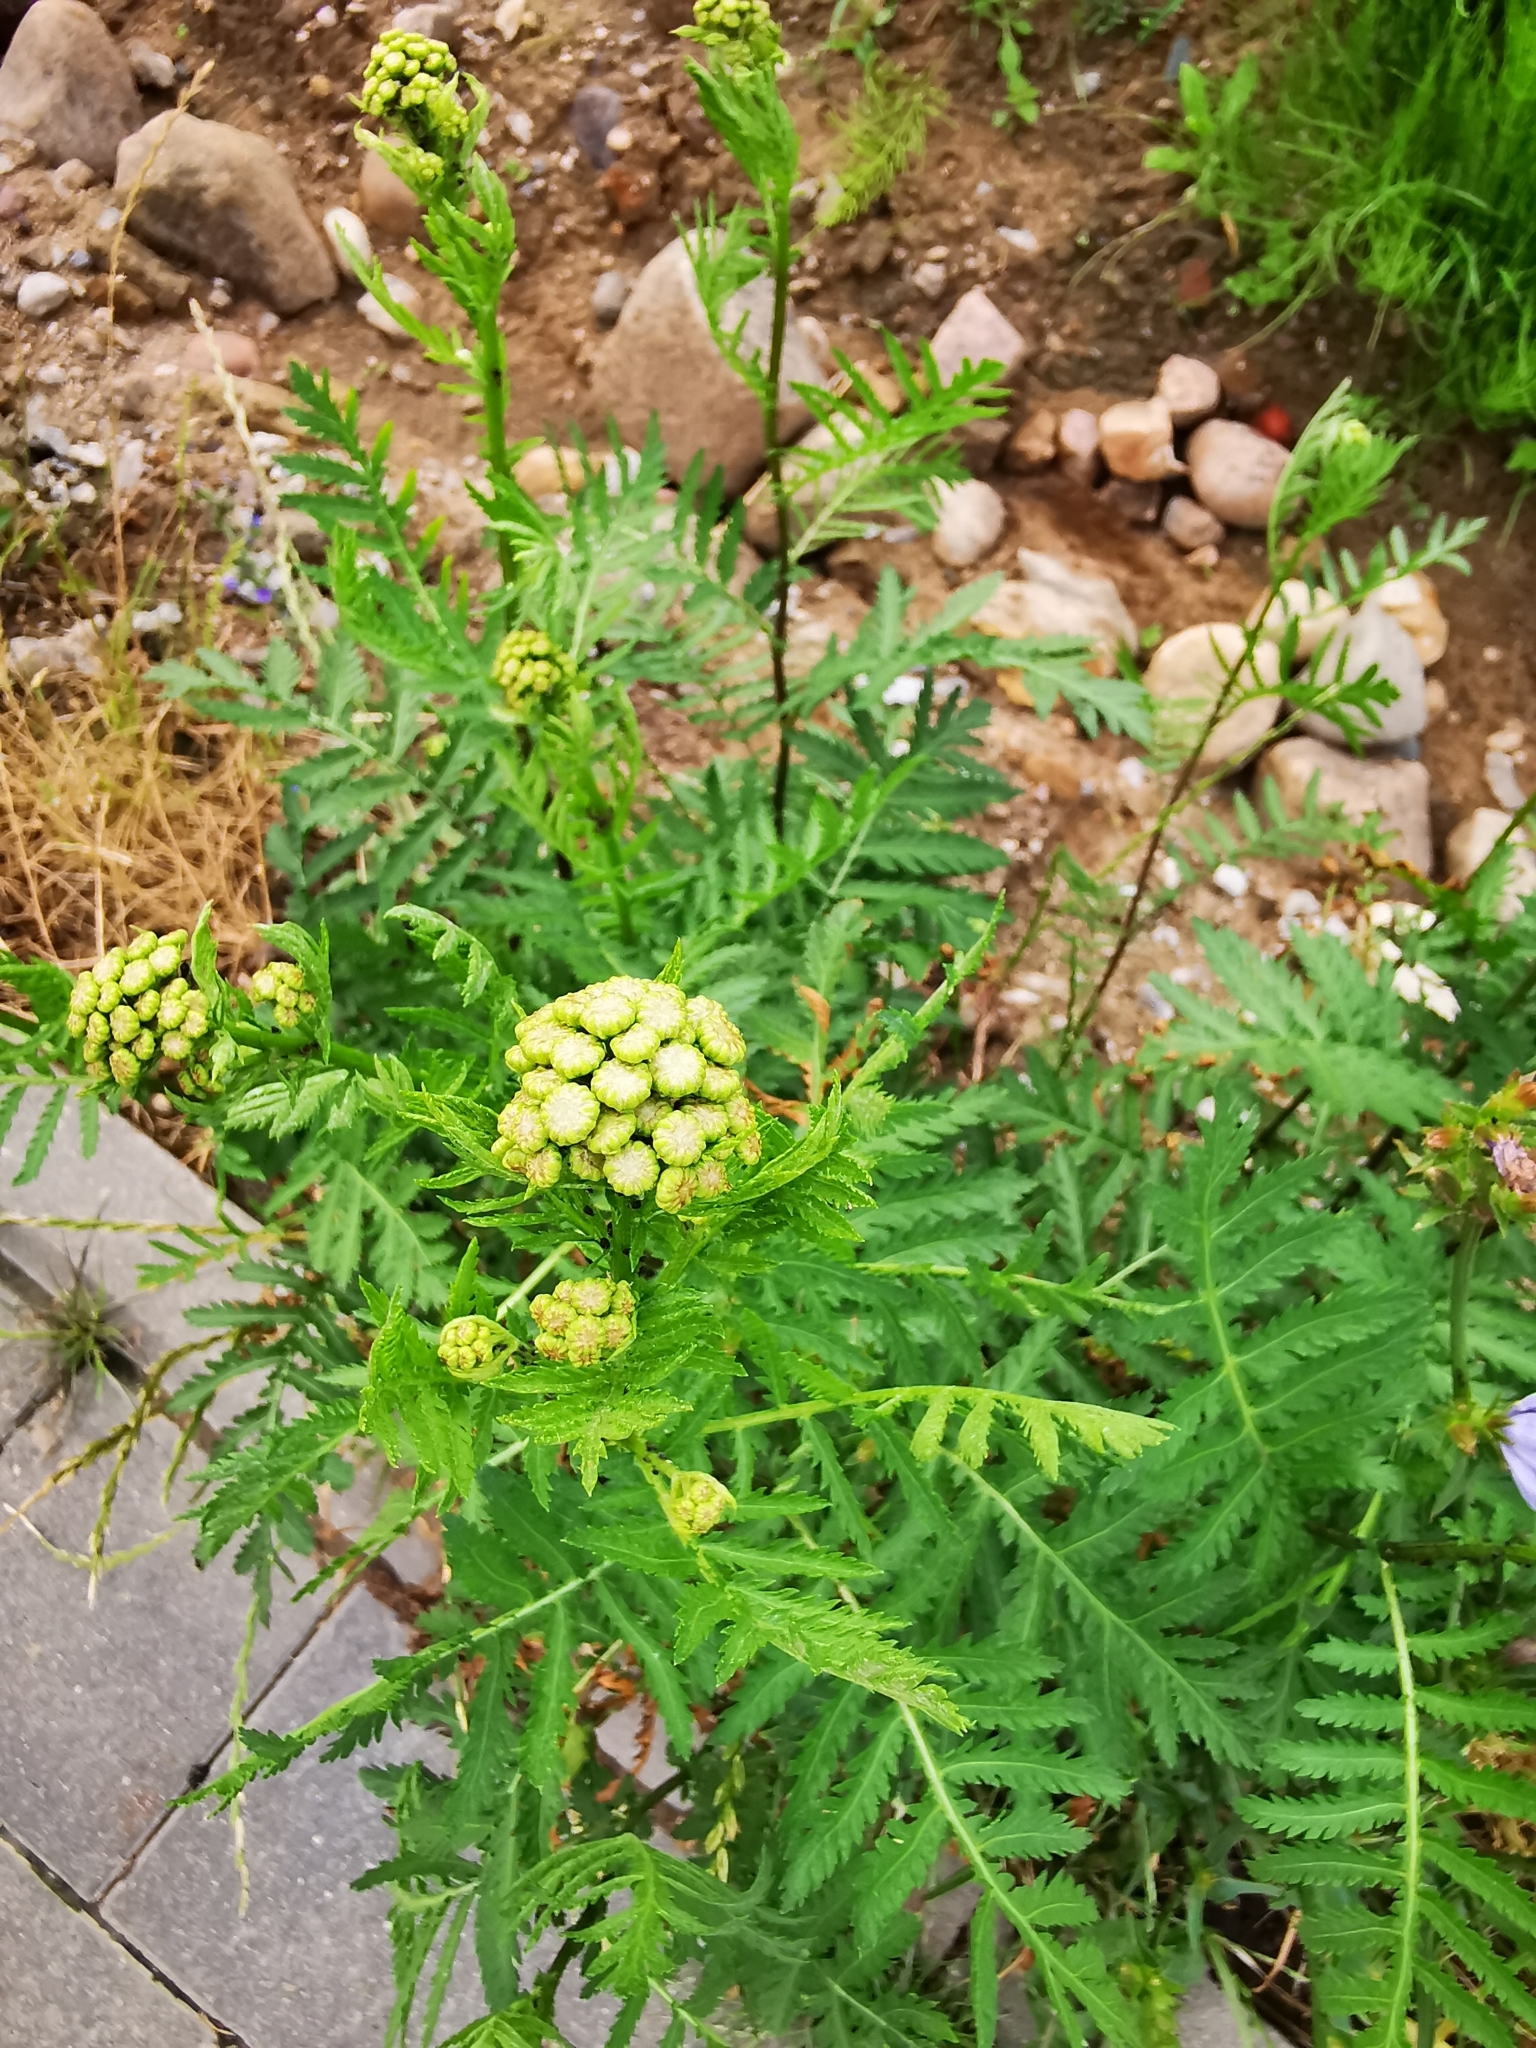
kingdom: Plantae
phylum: Tracheophyta
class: Magnoliopsida
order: Asterales
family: Asteraceae
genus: Tanacetum
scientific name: Tanacetum vulgare
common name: Common tansy
